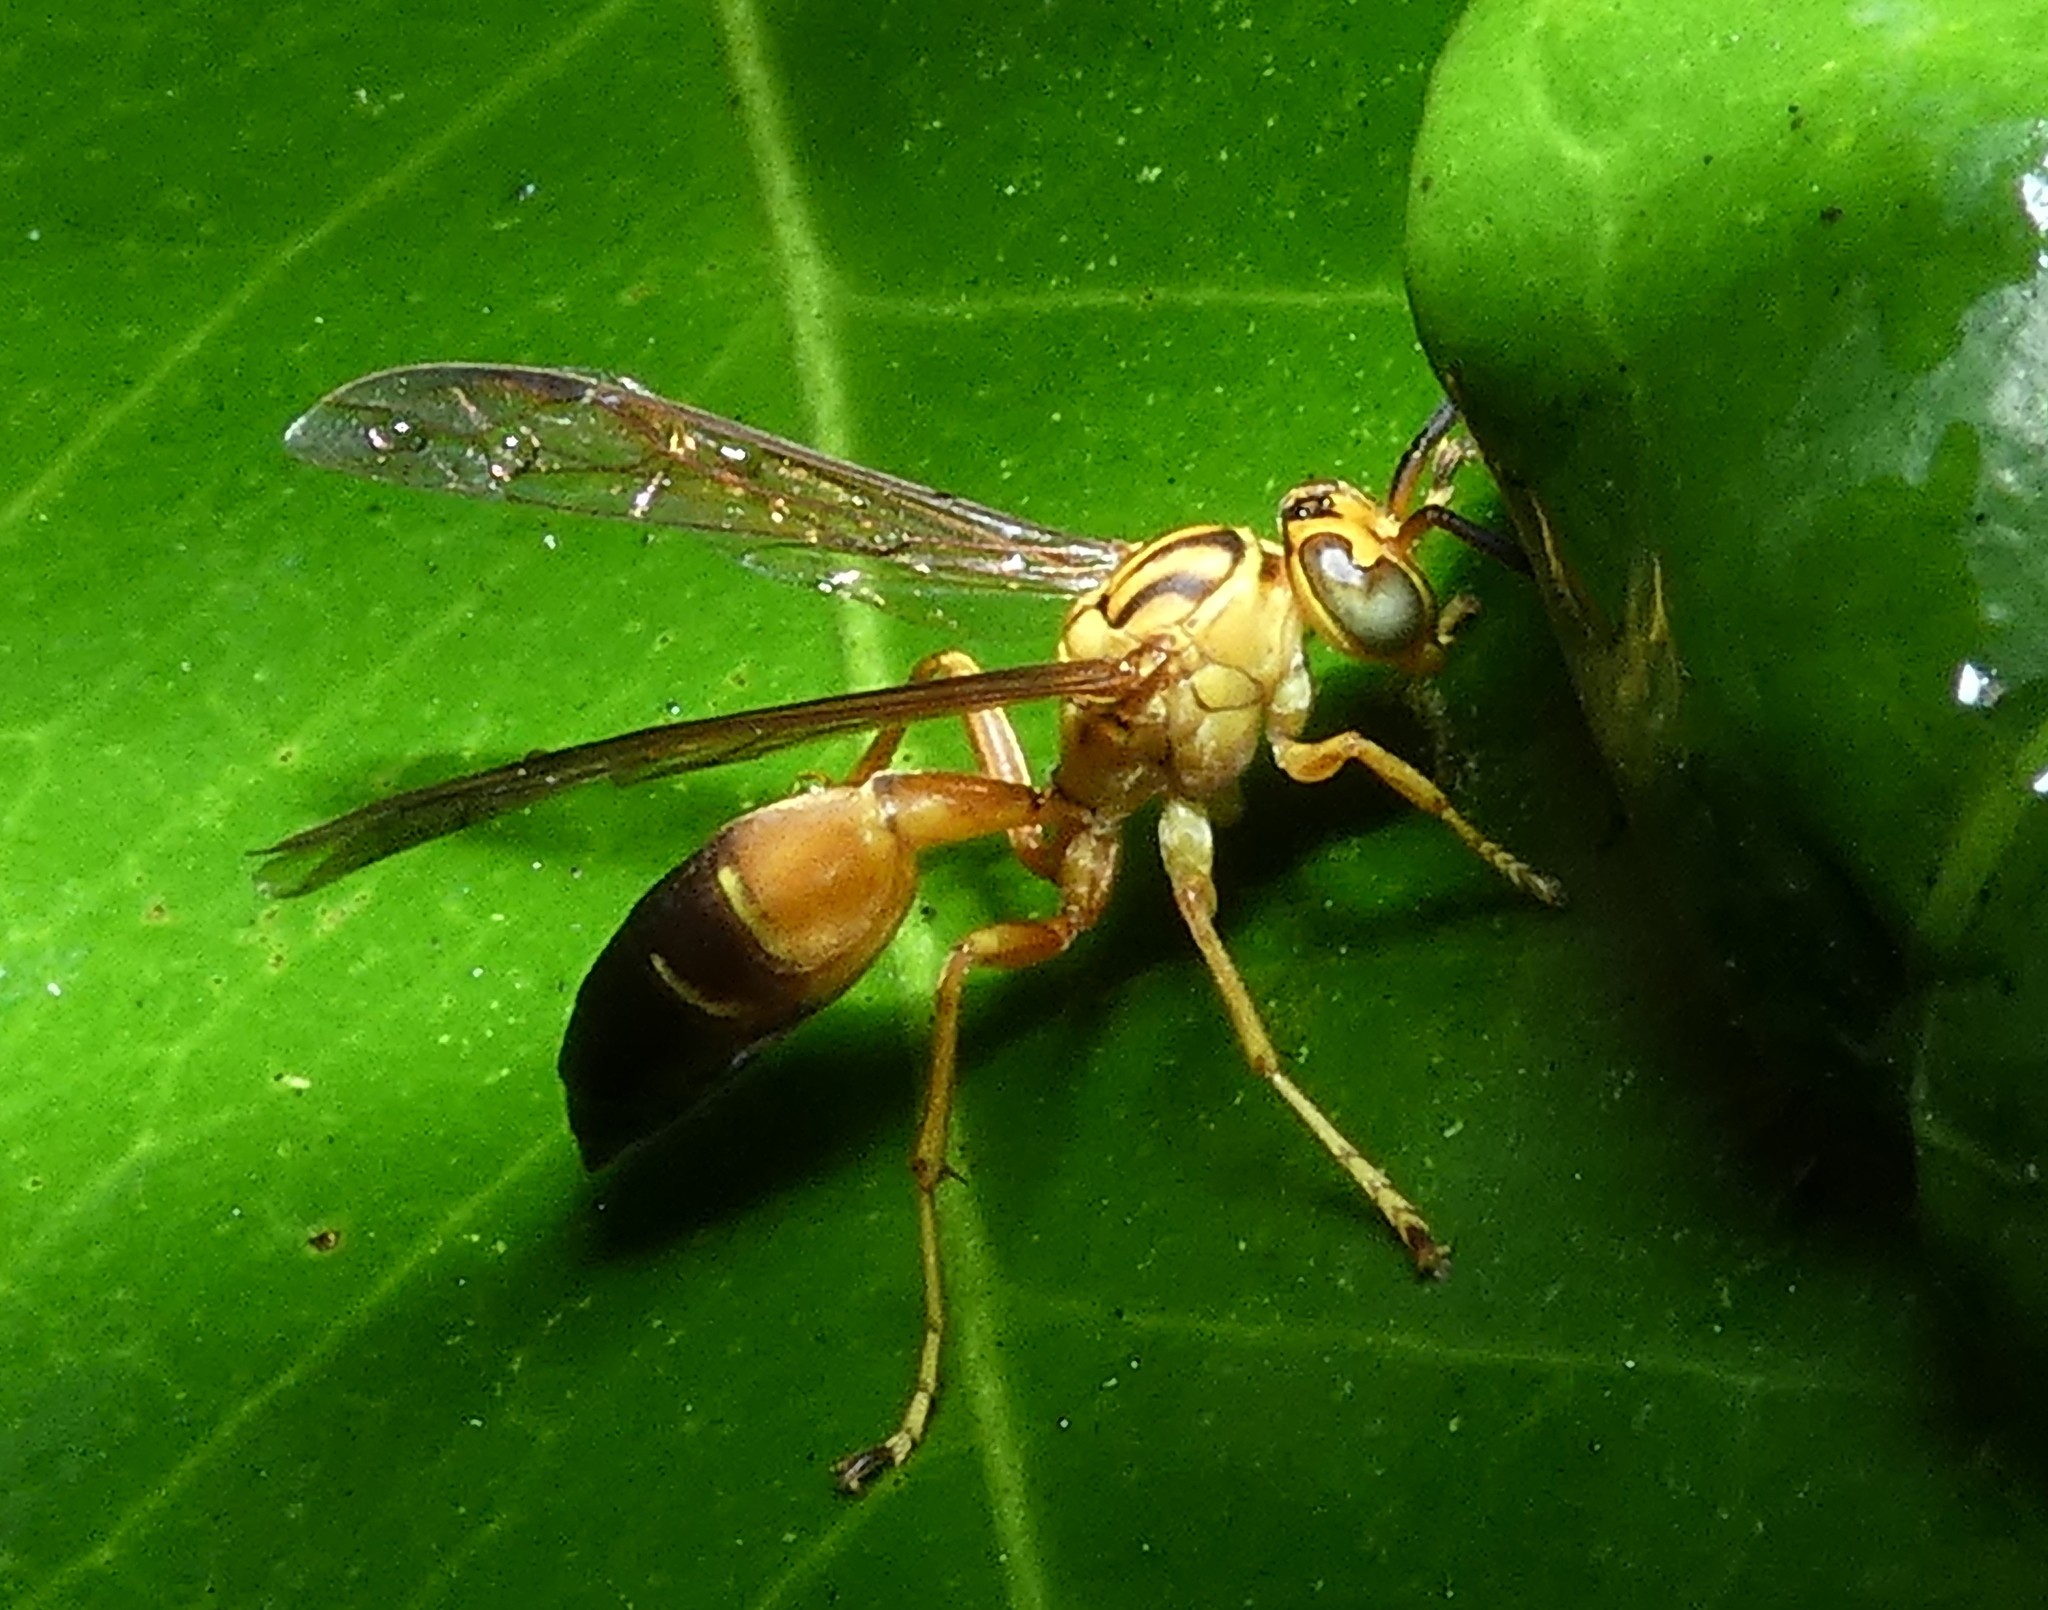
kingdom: Animalia
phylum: Arthropoda
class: Insecta
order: Hymenoptera
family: Vespidae
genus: Agelaia
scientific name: Agelaia pallipes
